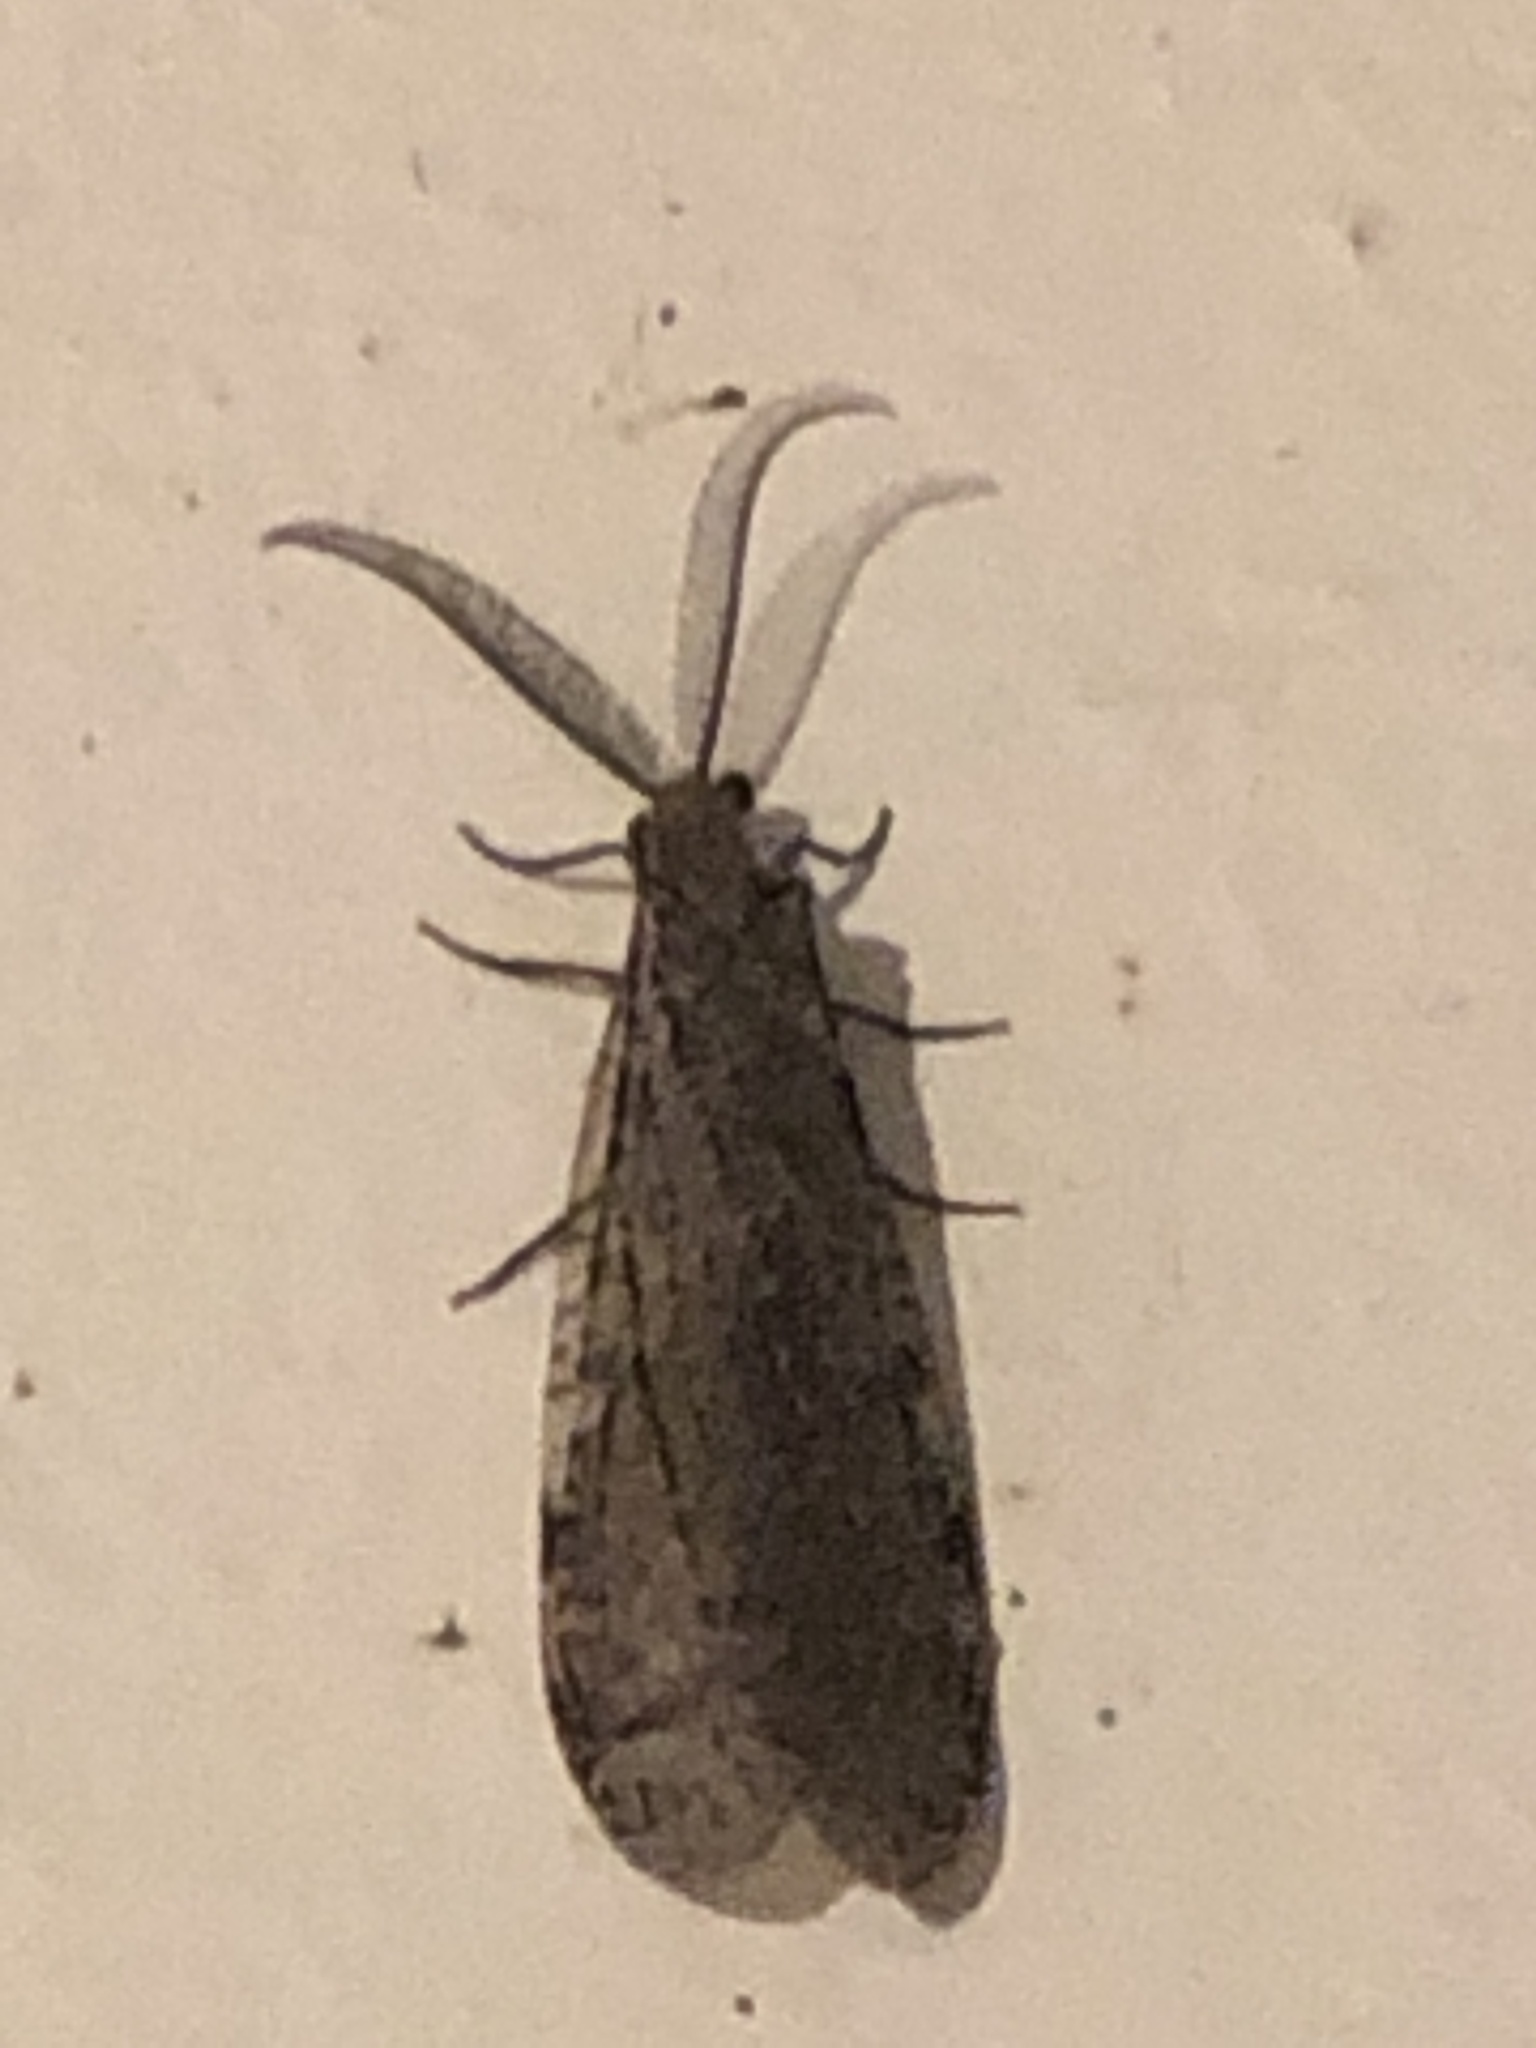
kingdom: Animalia
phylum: Arthropoda
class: Insecta
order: Megaloptera
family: Corydalidae
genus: Chauliodes
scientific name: Chauliodes
